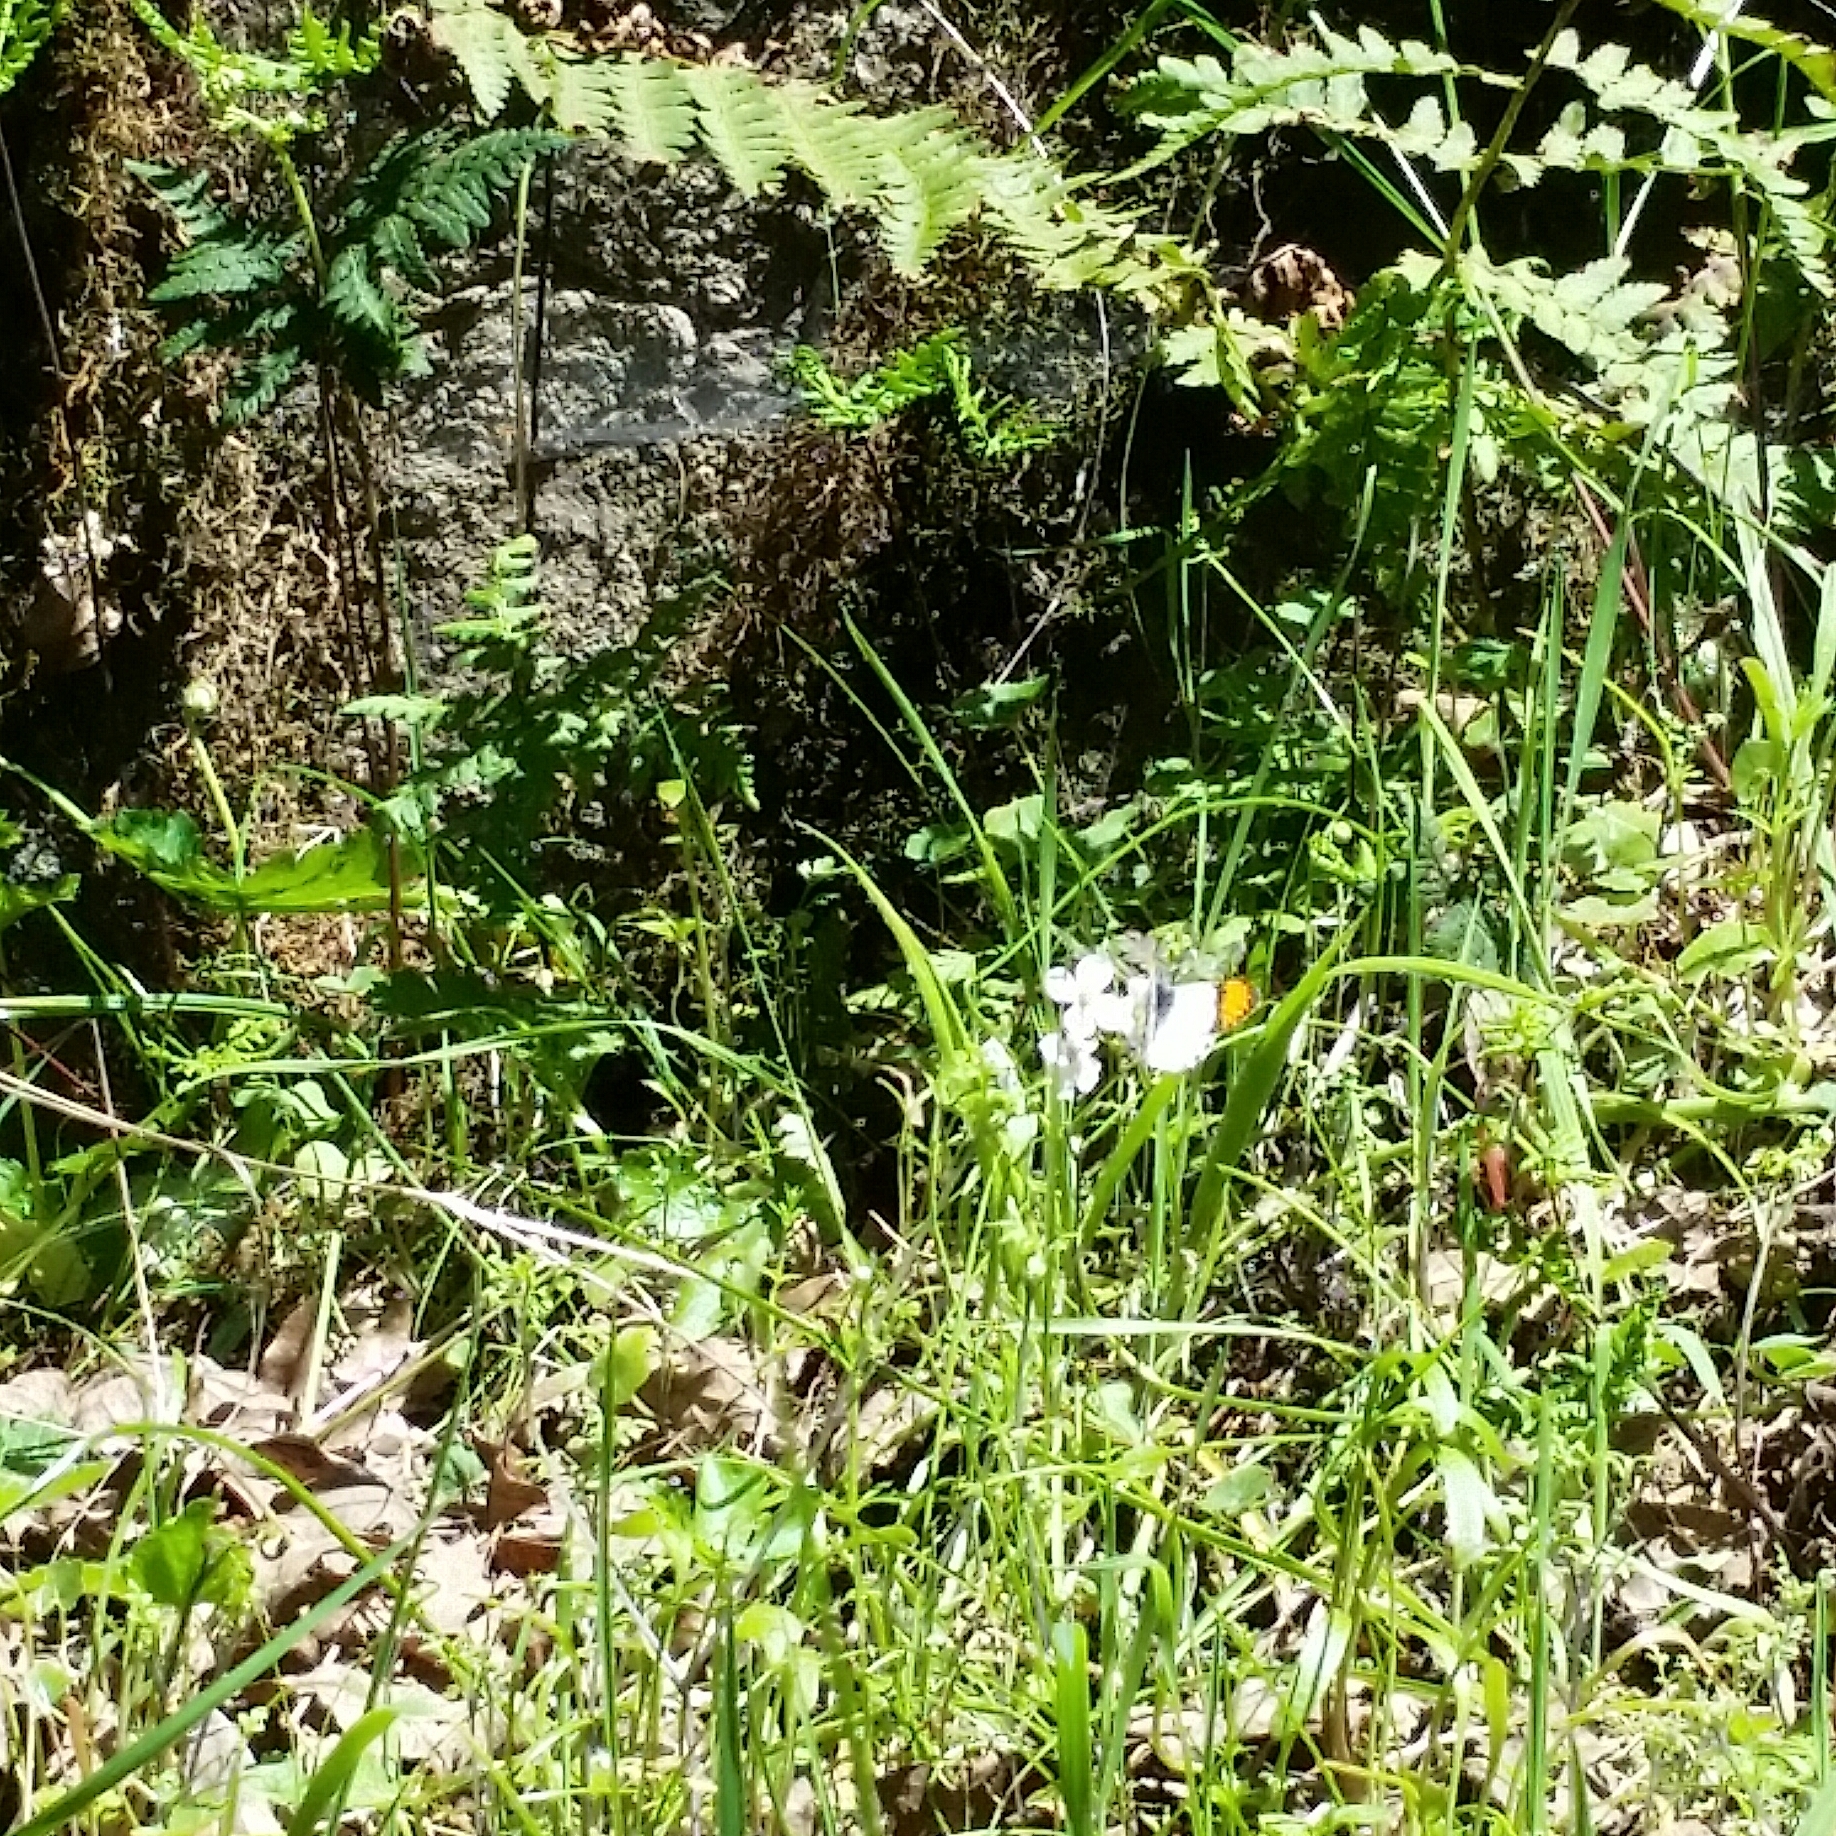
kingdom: Animalia
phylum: Arthropoda
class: Insecta
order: Lepidoptera
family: Pieridae
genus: Anthocharis
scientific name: Anthocharis sara
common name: Sara's orangetip
